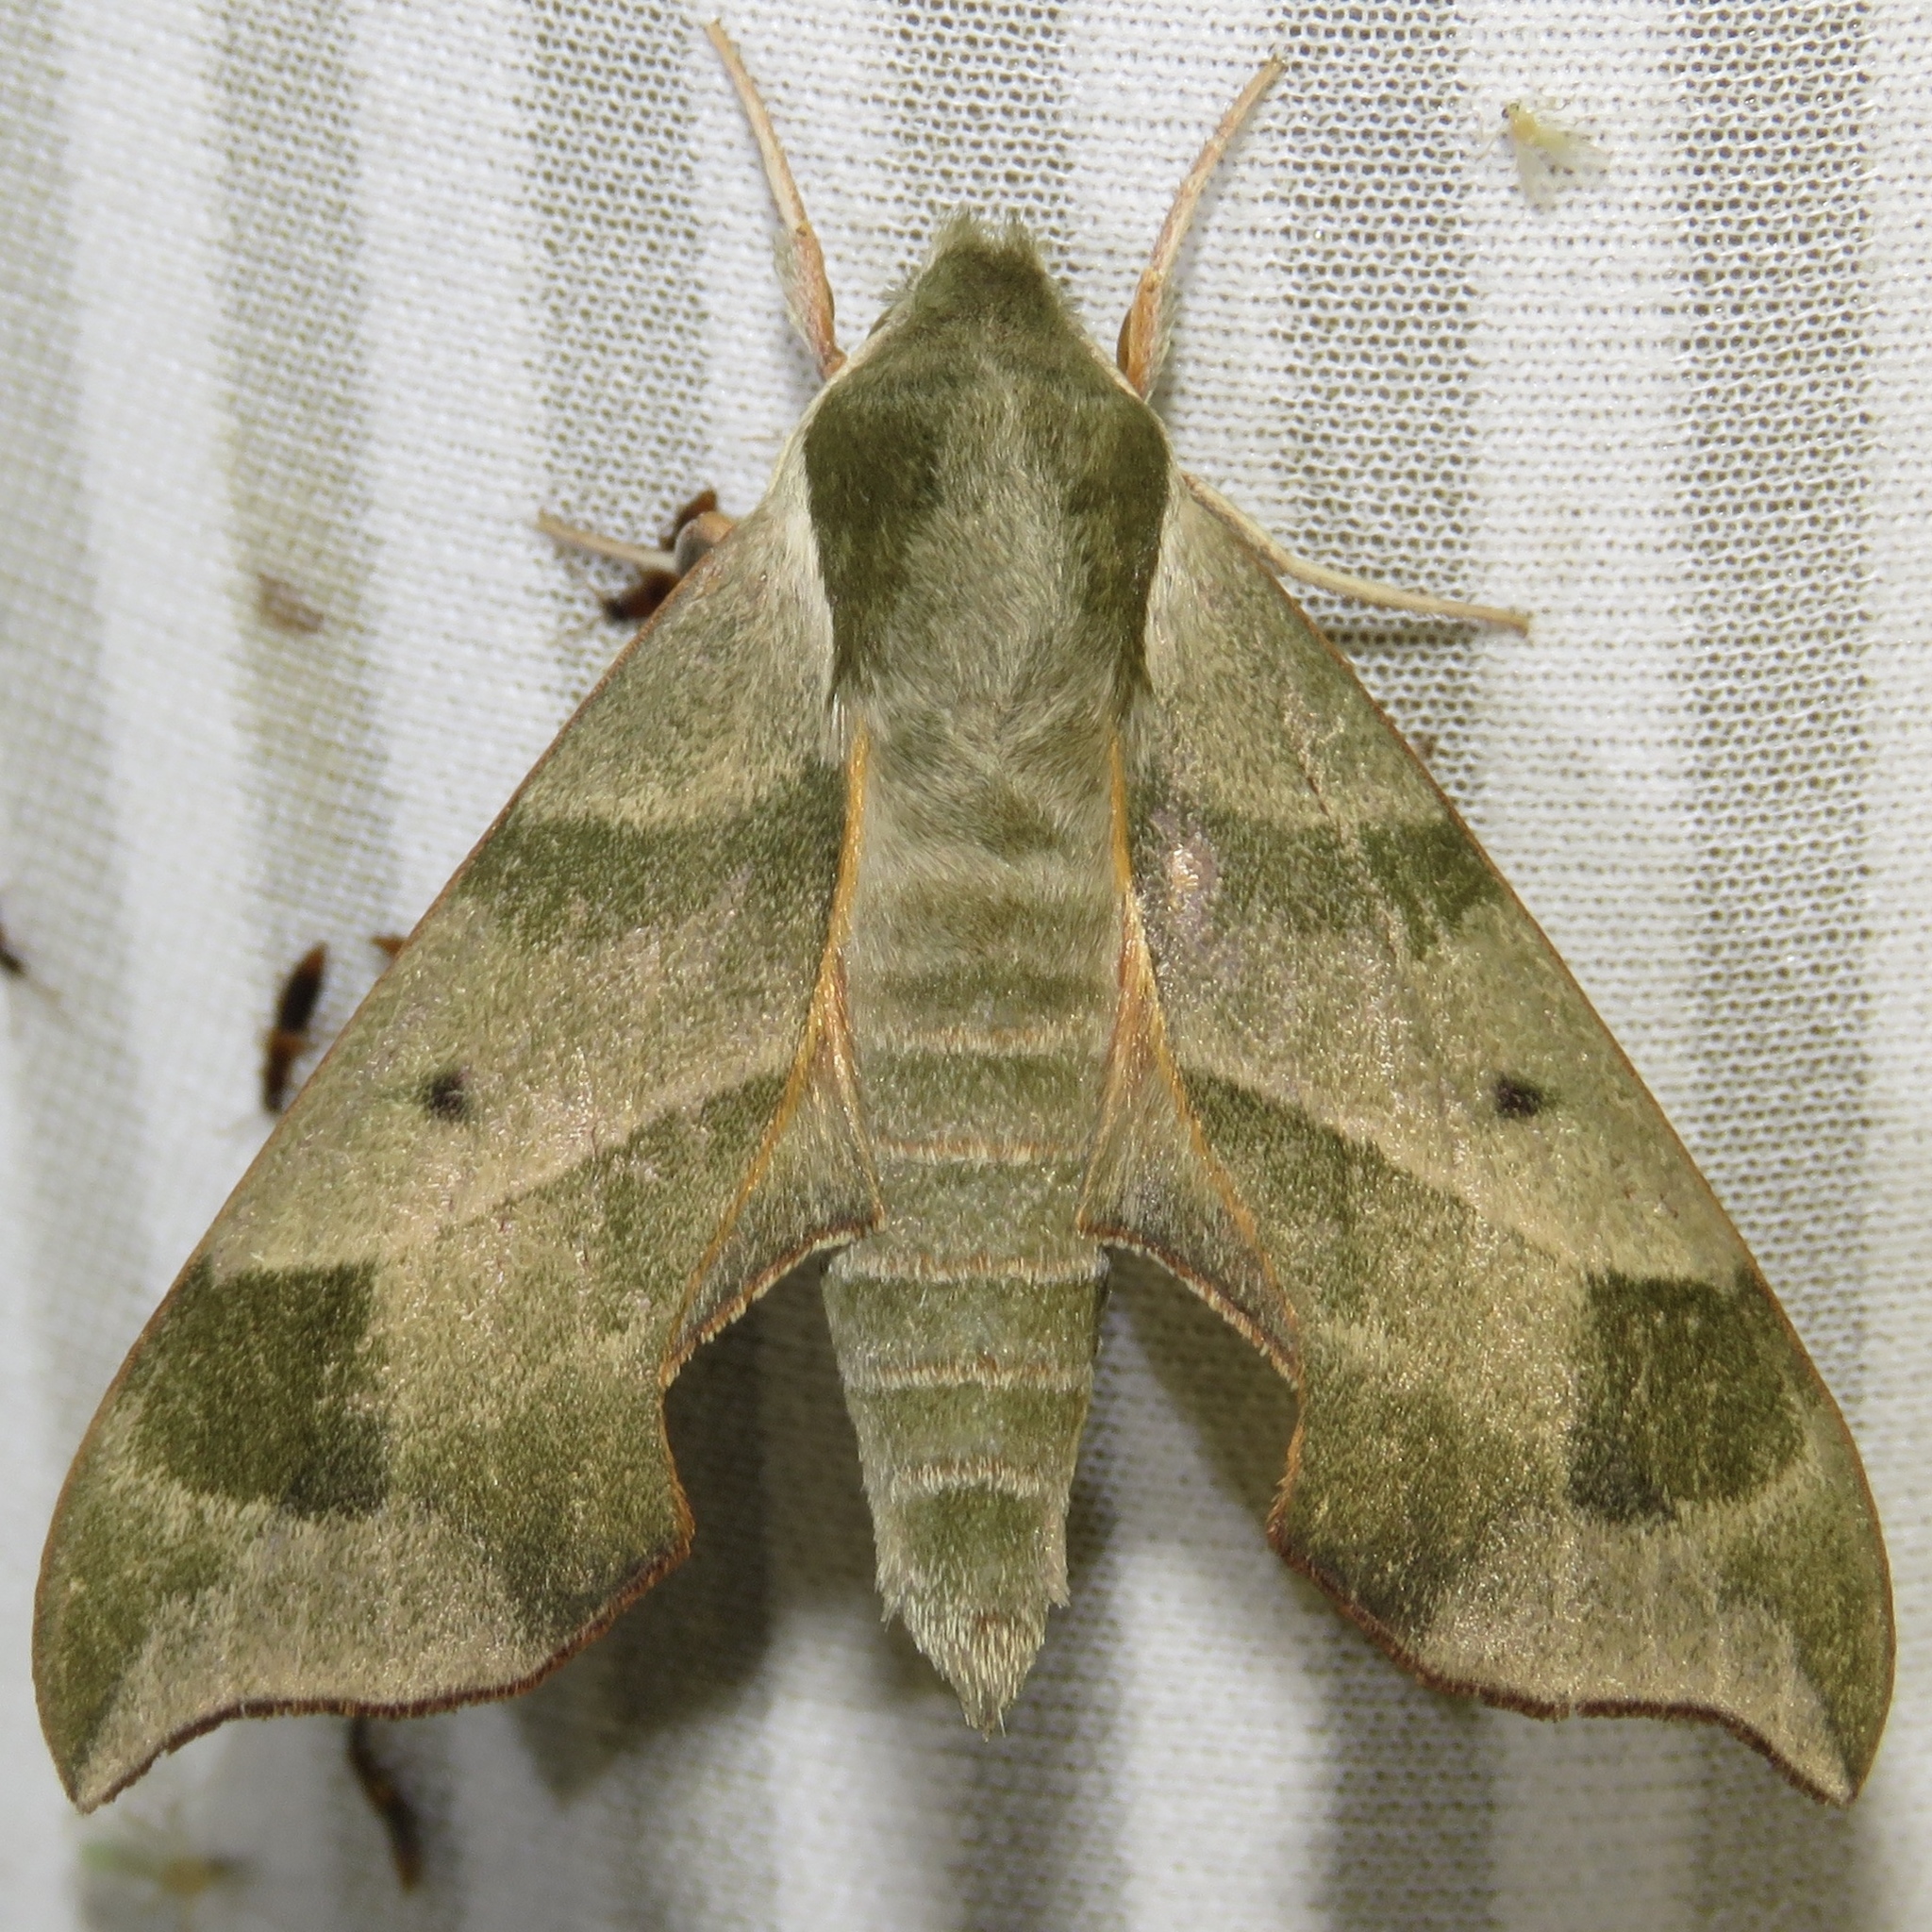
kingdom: Animalia
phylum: Arthropoda
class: Insecta
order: Lepidoptera
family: Sphingidae
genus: Darapsa
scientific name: Darapsa myron
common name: Hog sphinx
